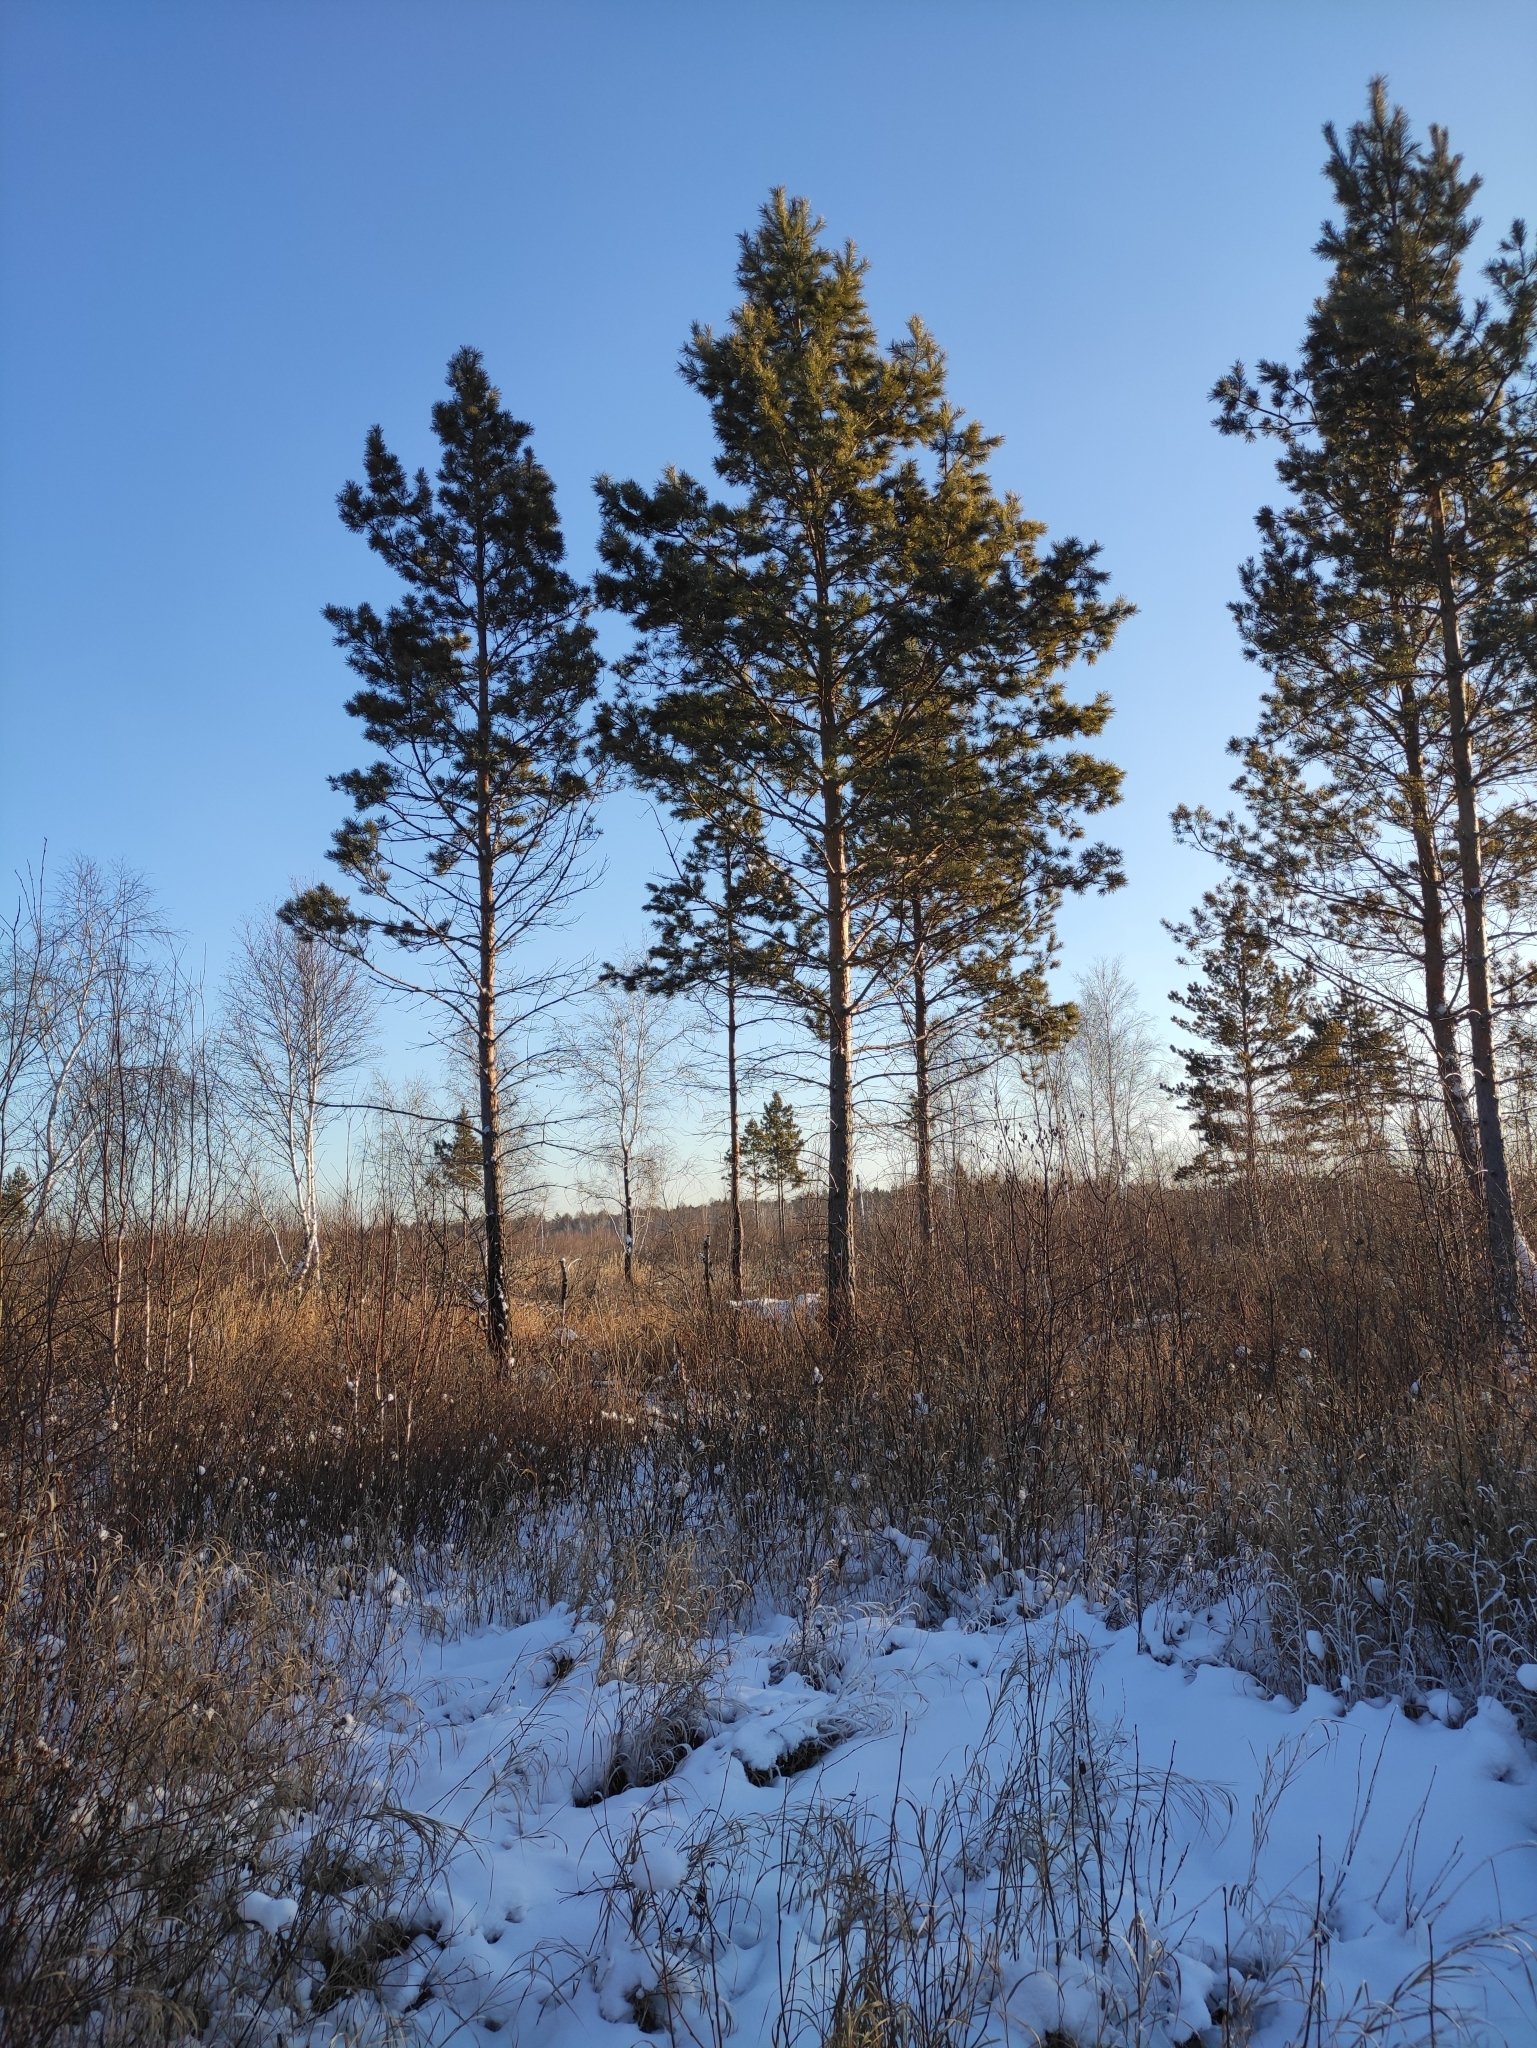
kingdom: Plantae
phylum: Tracheophyta
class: Pinopsida
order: Pinales
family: Pinaceae
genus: Pinus
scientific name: Pinus sylvestris
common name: Scots pine
